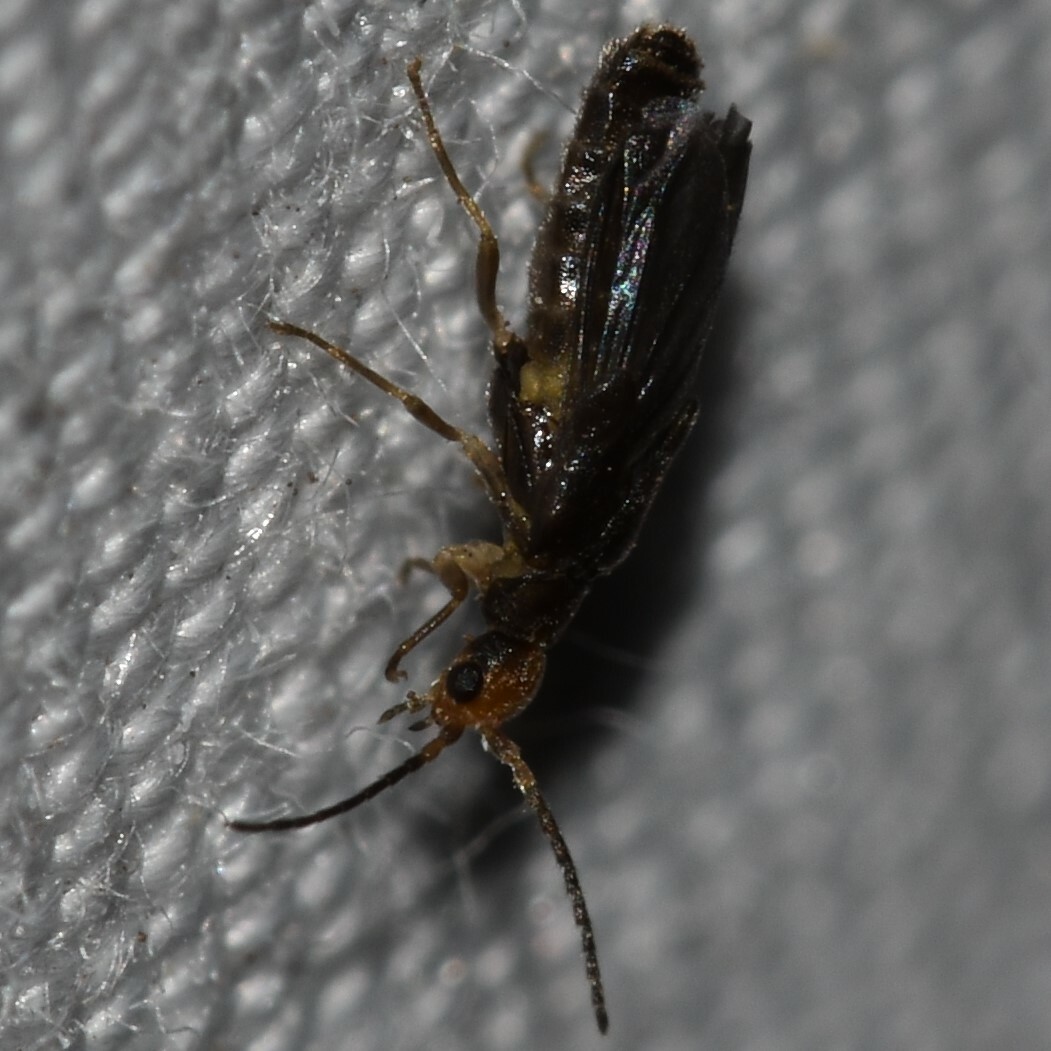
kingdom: Animalia
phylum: Arthropoda
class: Insecta
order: Coleoptera
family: Cantharidae
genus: Caccodes
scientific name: Caccodes oceaniae
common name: Soldier beetle
